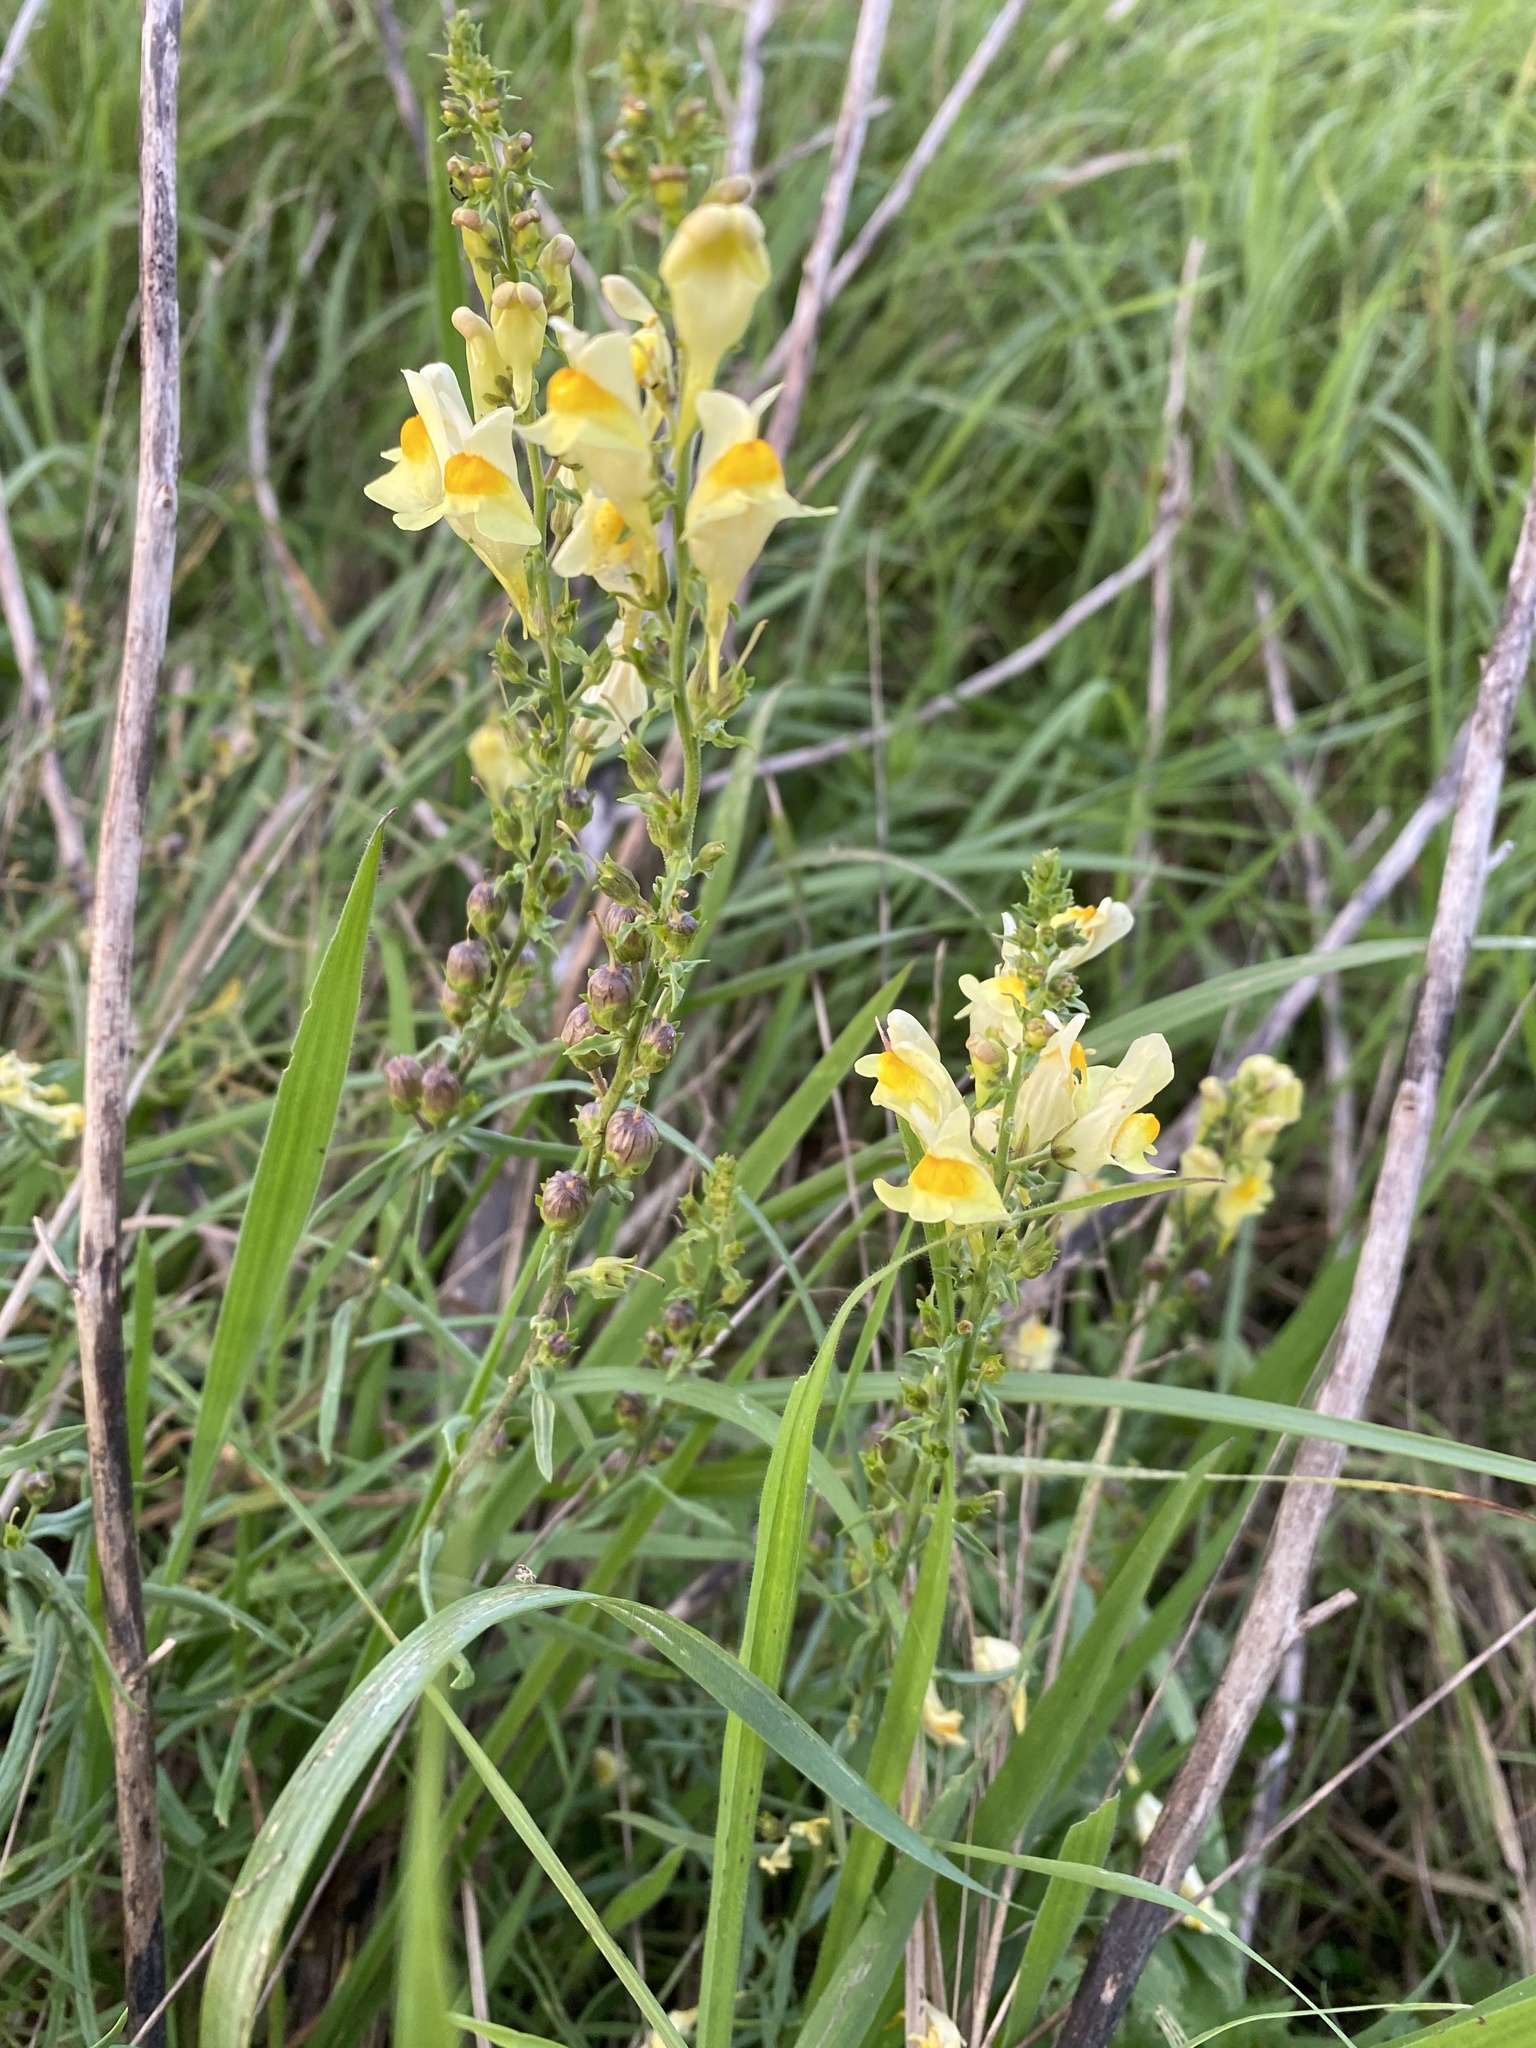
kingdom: Plantae
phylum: Tracheophyta
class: Magnoliopsida
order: Lamiales
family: Plantaginaceae
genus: Linaria
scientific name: Linaria vulgaris
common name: Butter and eggs
